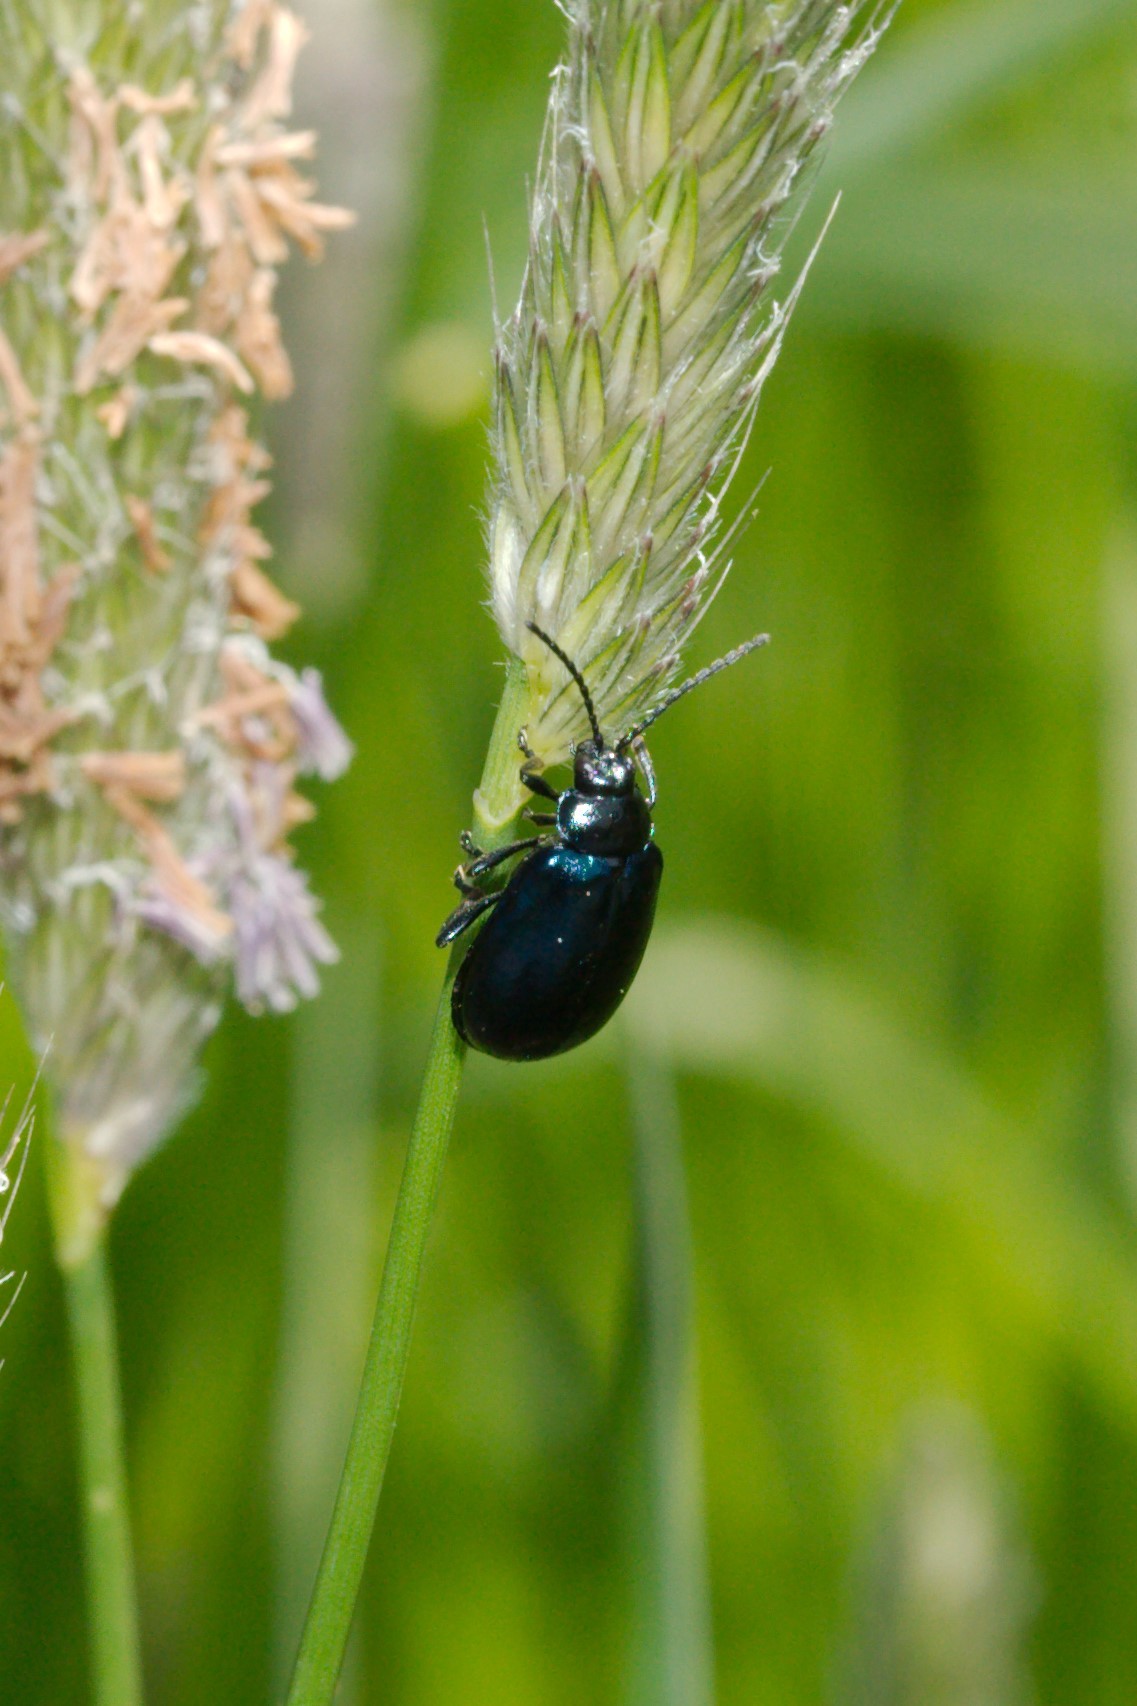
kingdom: Animalia
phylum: Arthropoda
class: Insecta
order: Coleoptera
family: Chrysomelidae
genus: Agelastica
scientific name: Agelastica alni
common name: Alder leaf beetle
